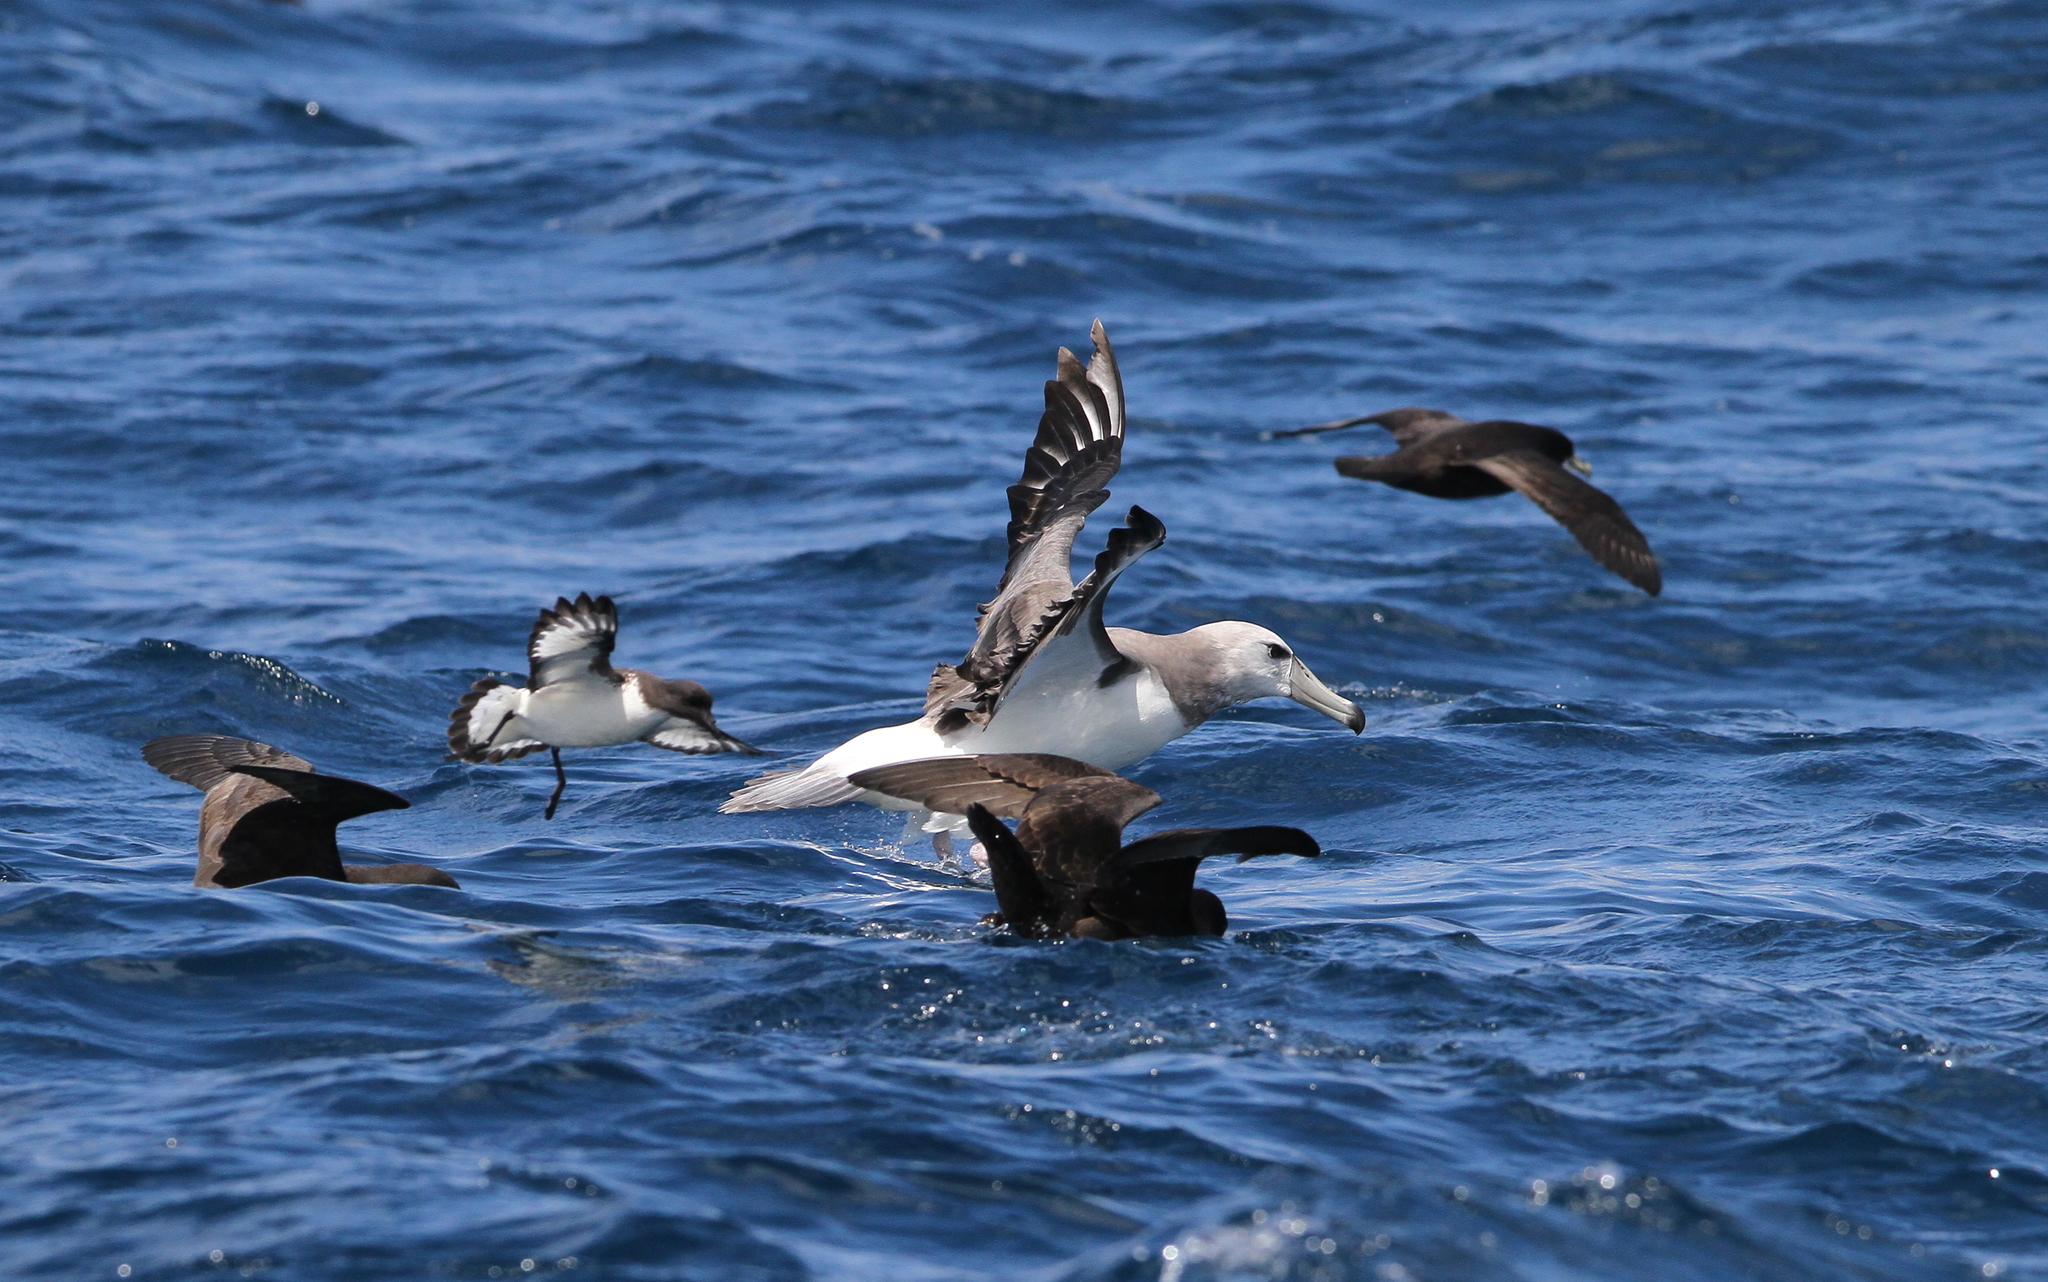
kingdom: Animalia
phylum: Chordata
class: Aves
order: Procellariiformes
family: Diomedeidae
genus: Thalassarche
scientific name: Thalassarche cauta
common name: Shy albatross
